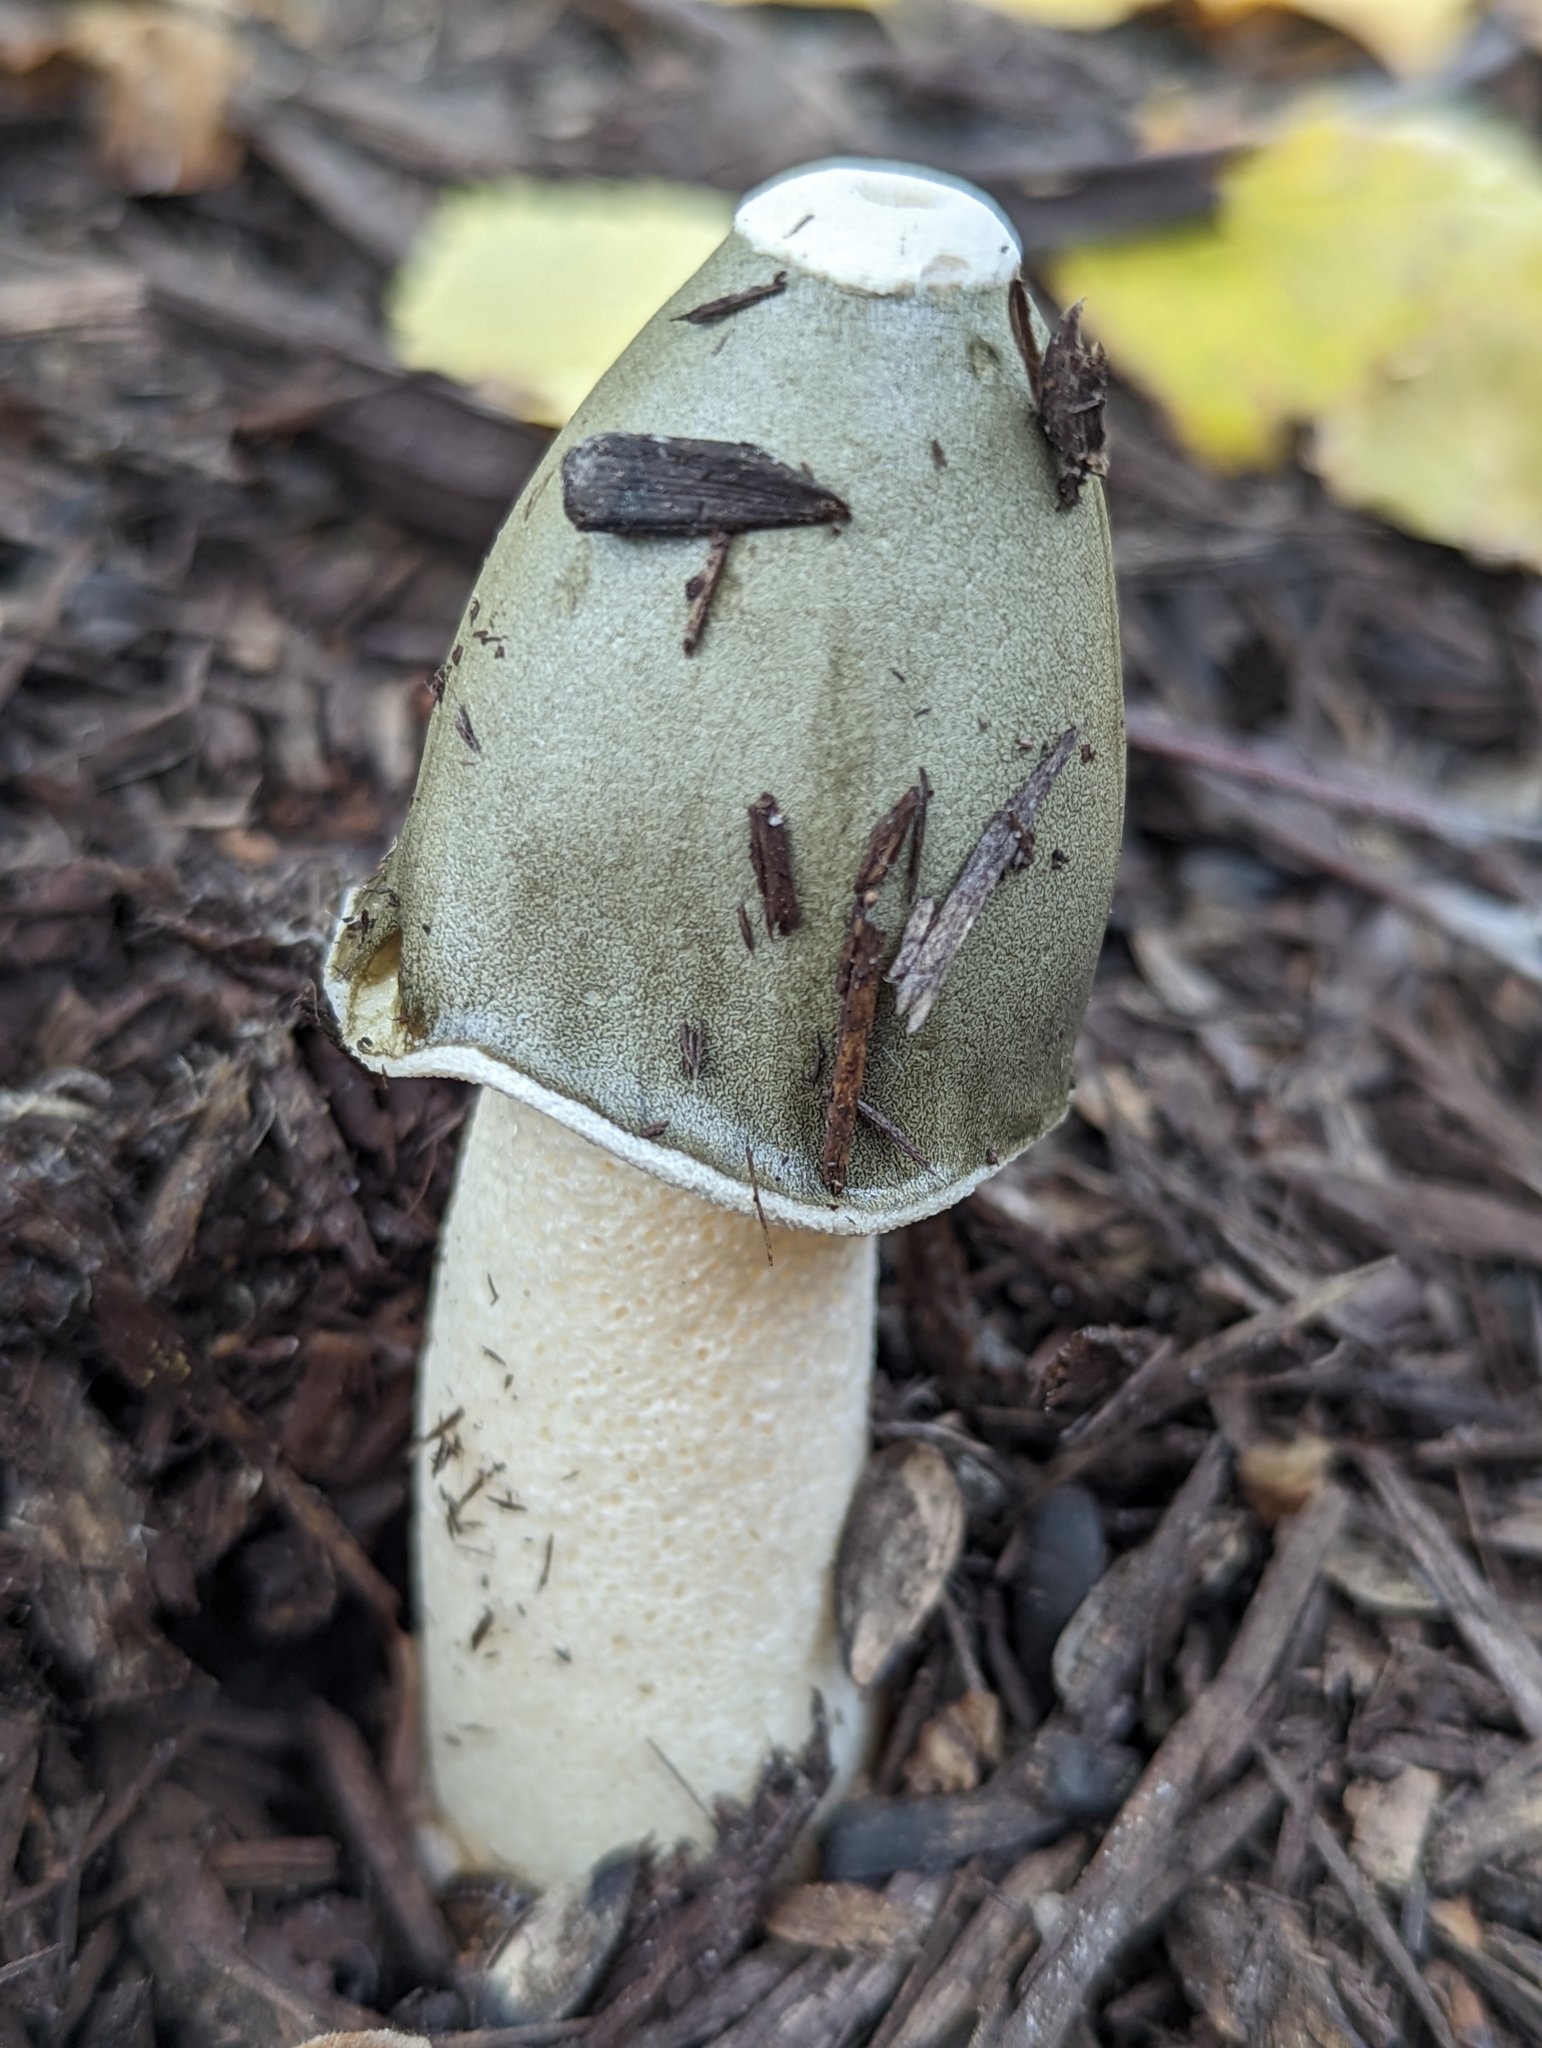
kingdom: Fungi
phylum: Basidiomycota
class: Agaricomycetes
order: Phallales
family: Phallaceae
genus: Phallus
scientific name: Phallus ravenelii
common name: Ravenel's stinkhorn
